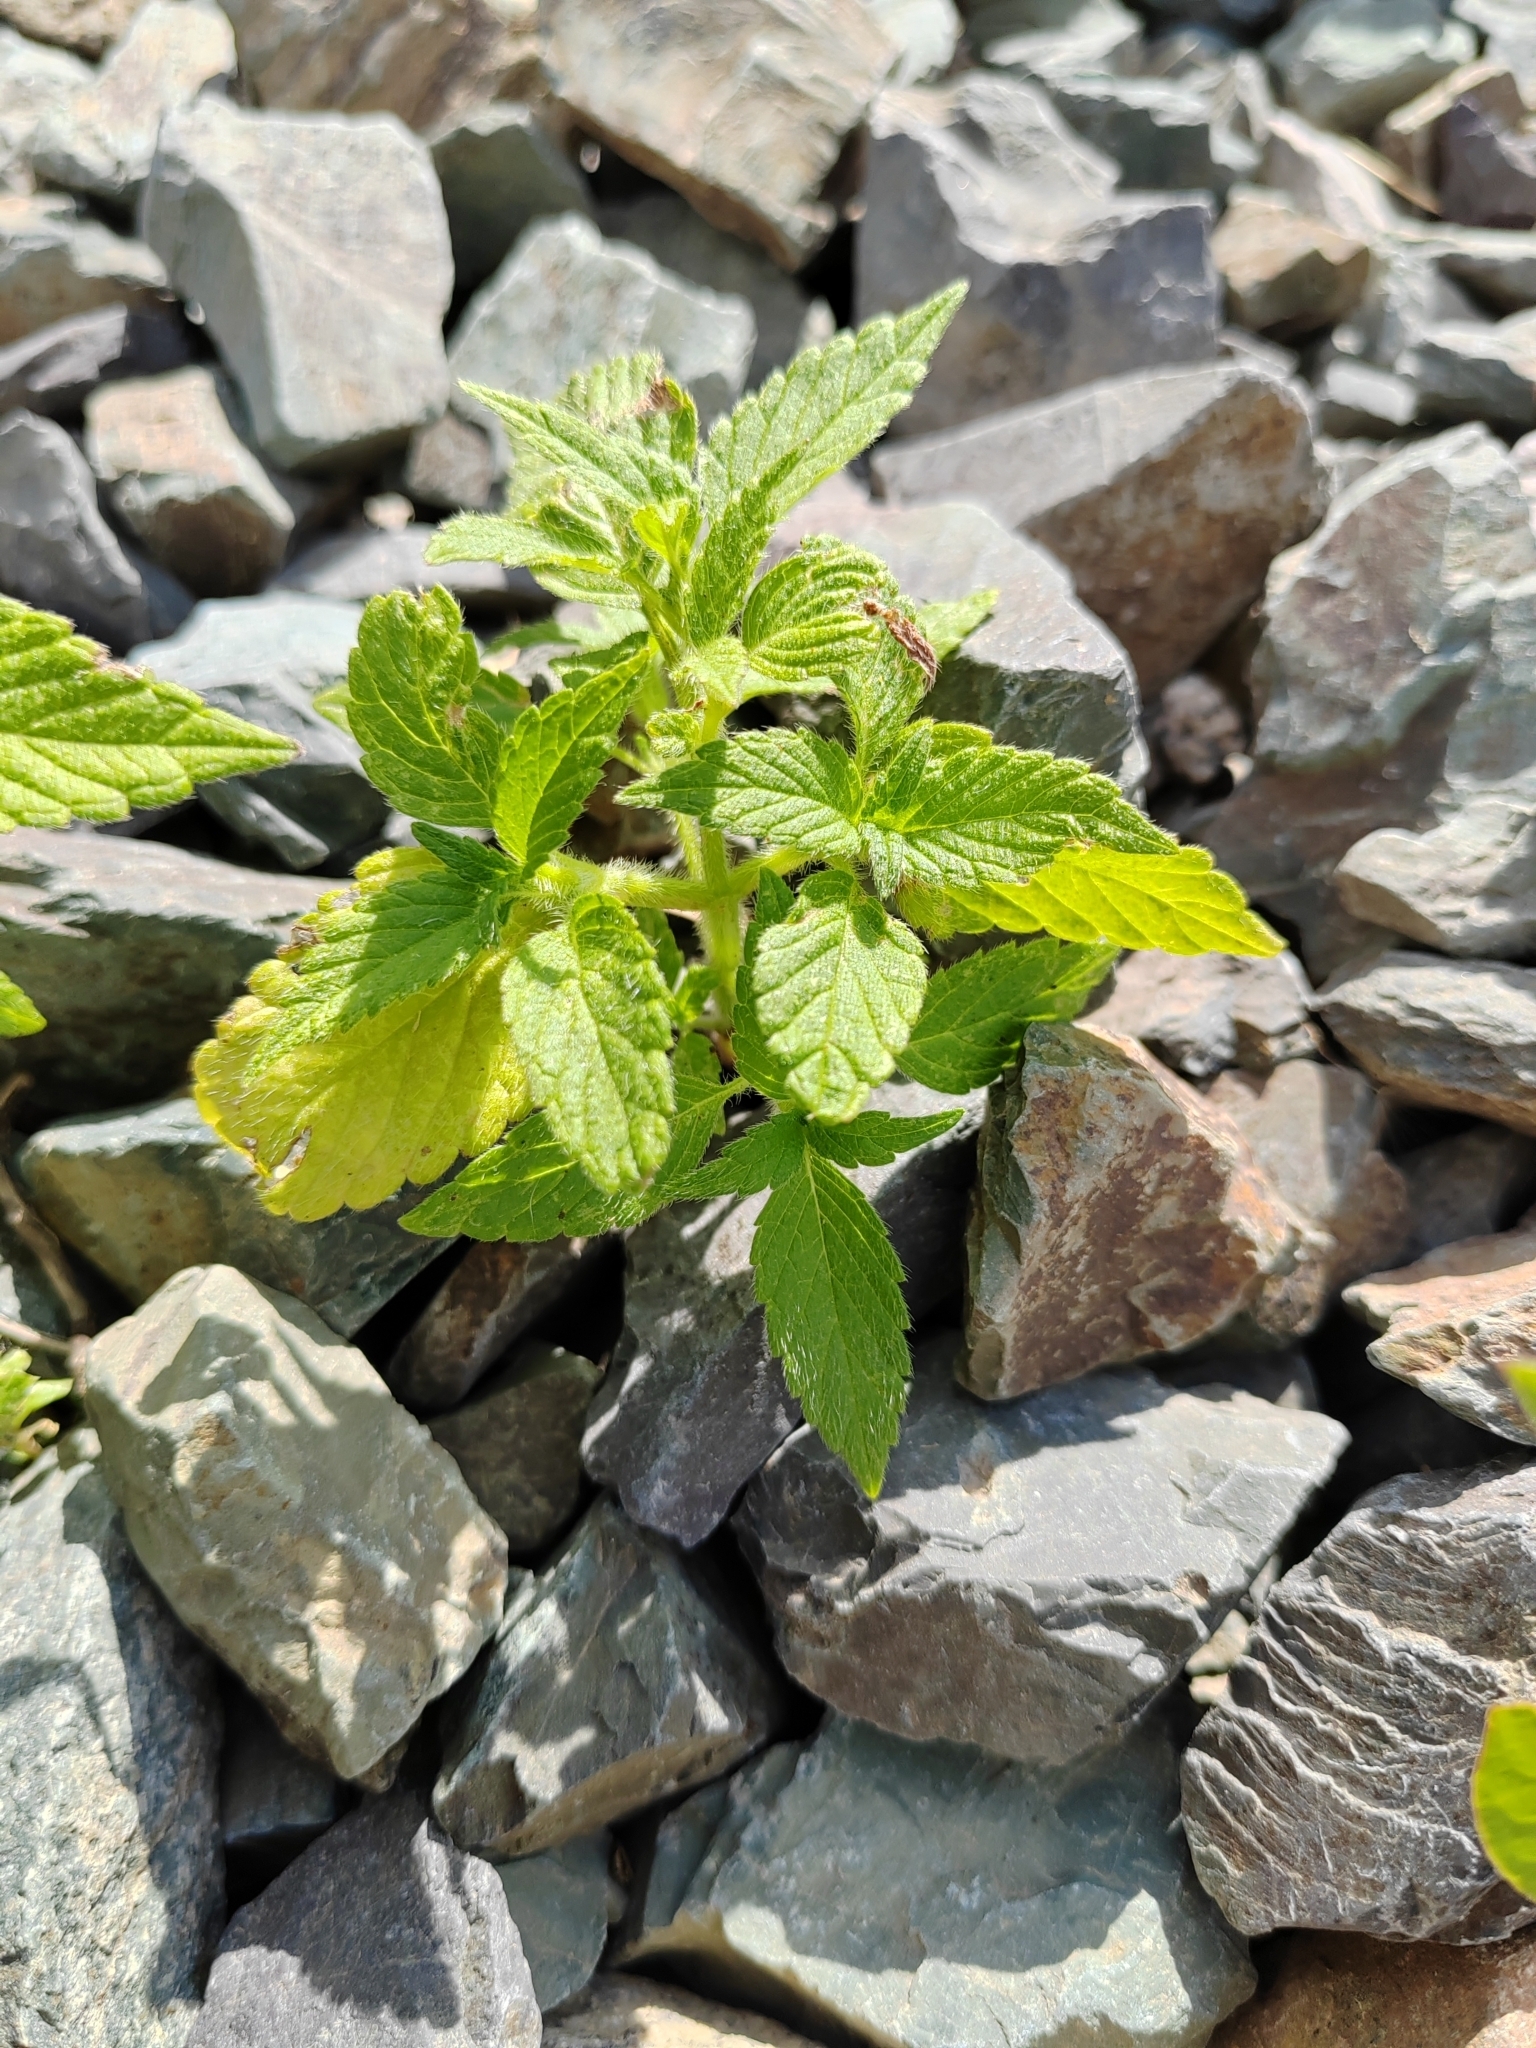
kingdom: Plantae
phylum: Tracheophyta
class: Magnoliopsida
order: Lamiales
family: Lamiaceae
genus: Galeopsis
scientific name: Galeopsis bifida
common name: Bifid hemp-nettle
